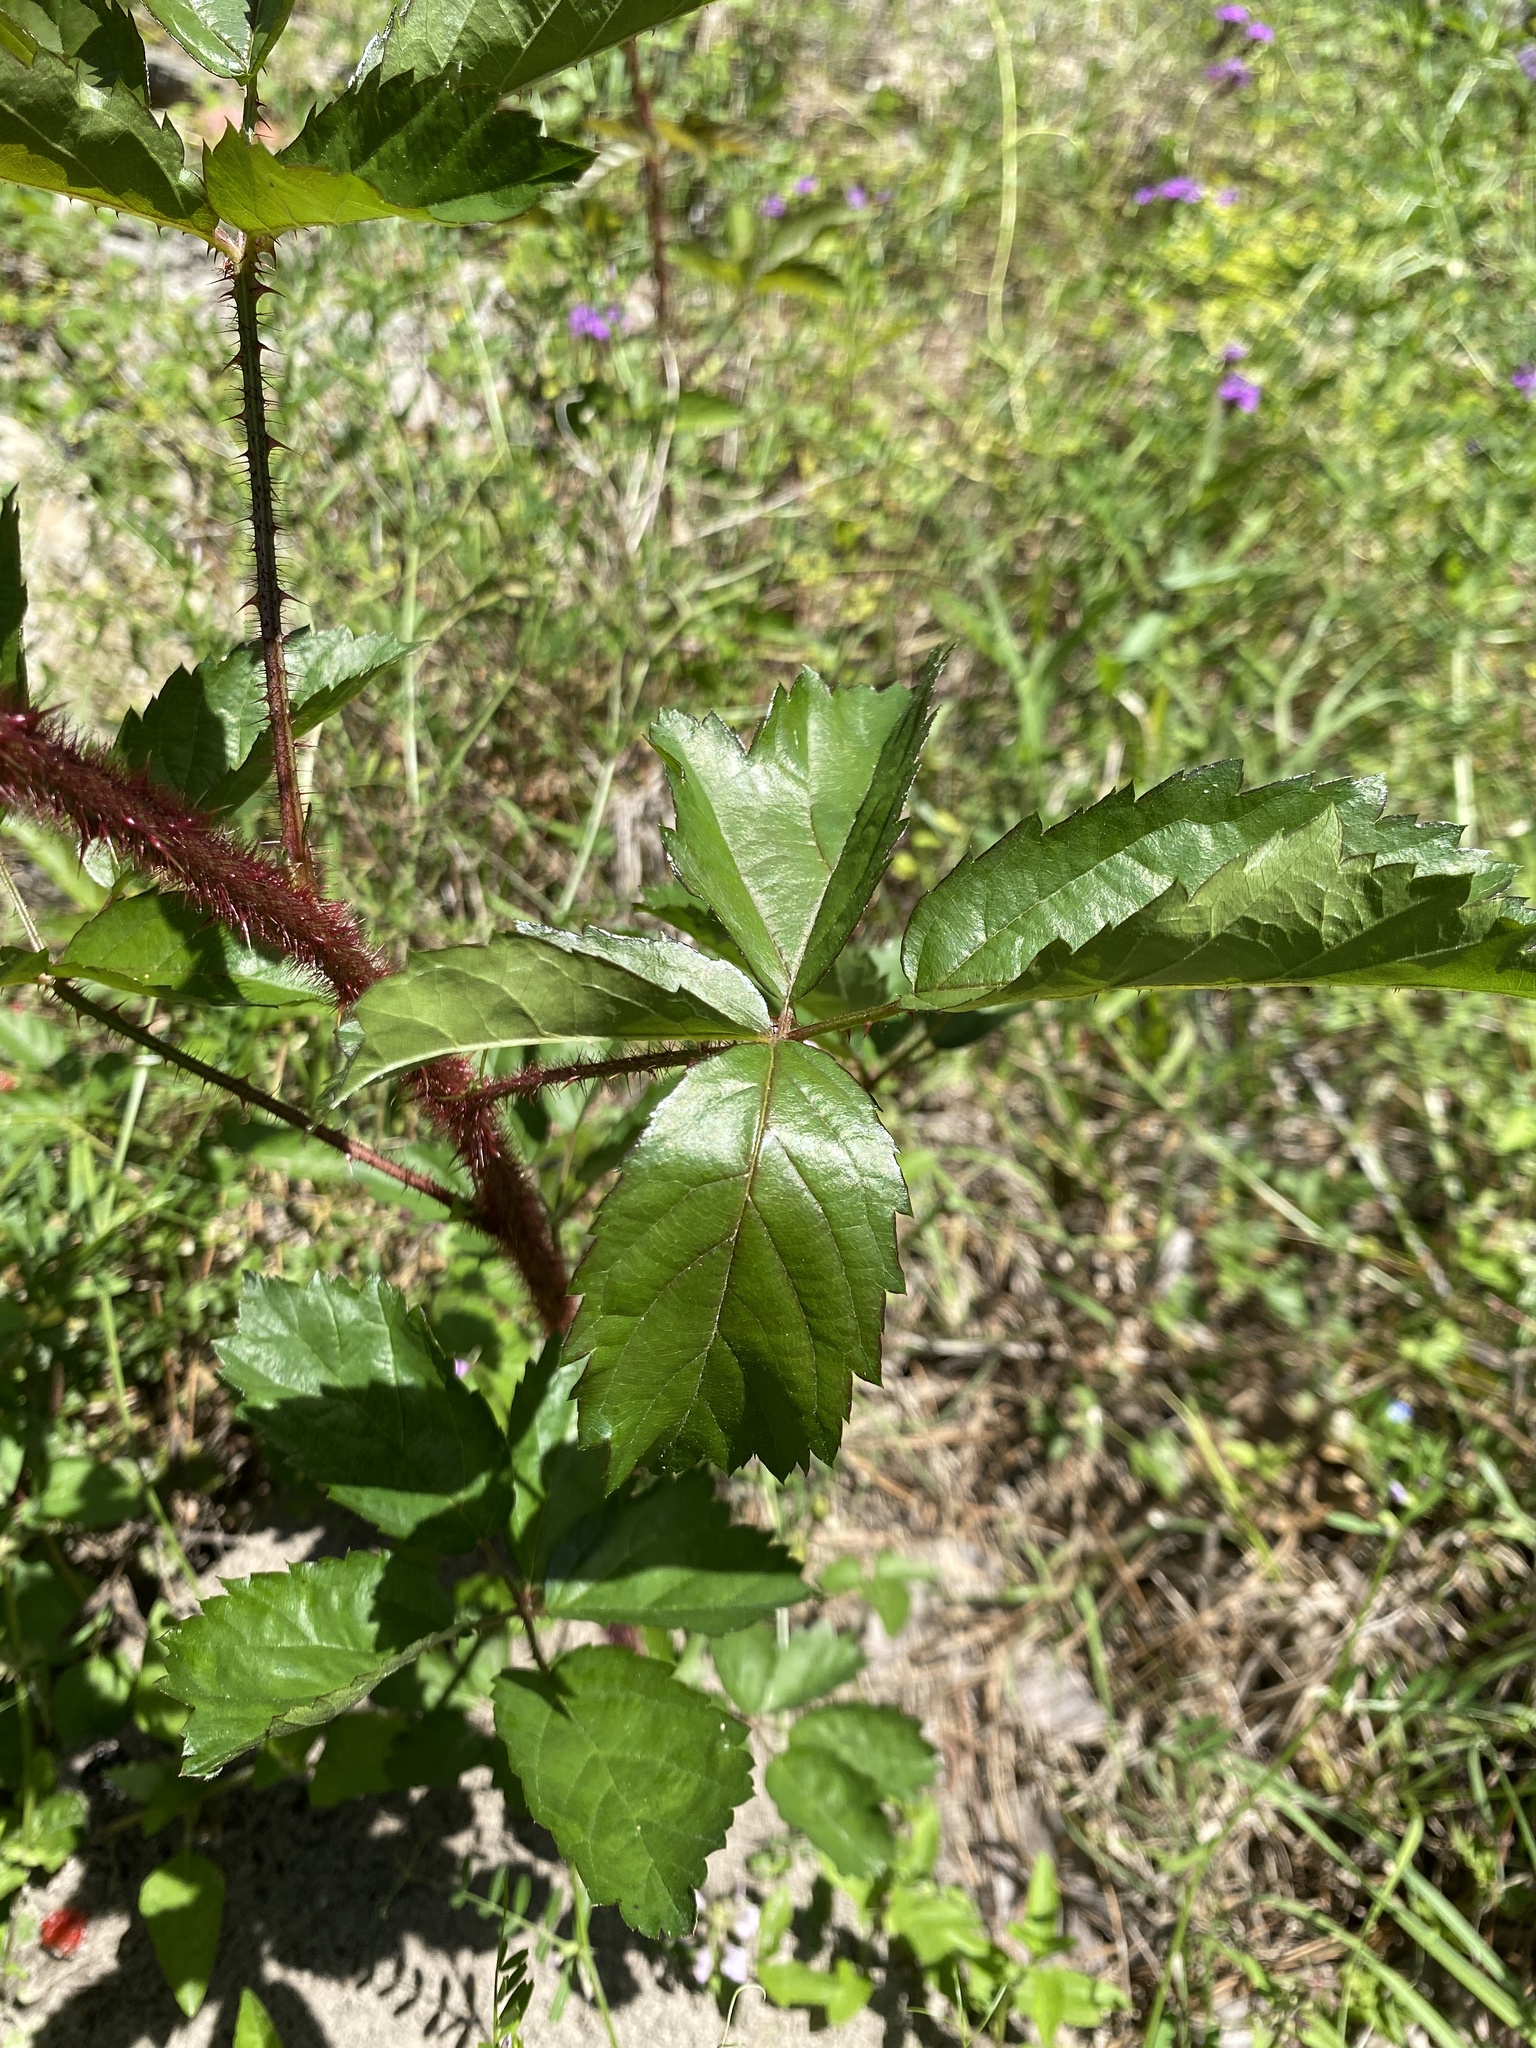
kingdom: Plantae
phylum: Tracheophyta
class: Magnoliopsida
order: Rosales
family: Rosaceae
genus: Rubus
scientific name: Rubus trivialis
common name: Southern dewberry
